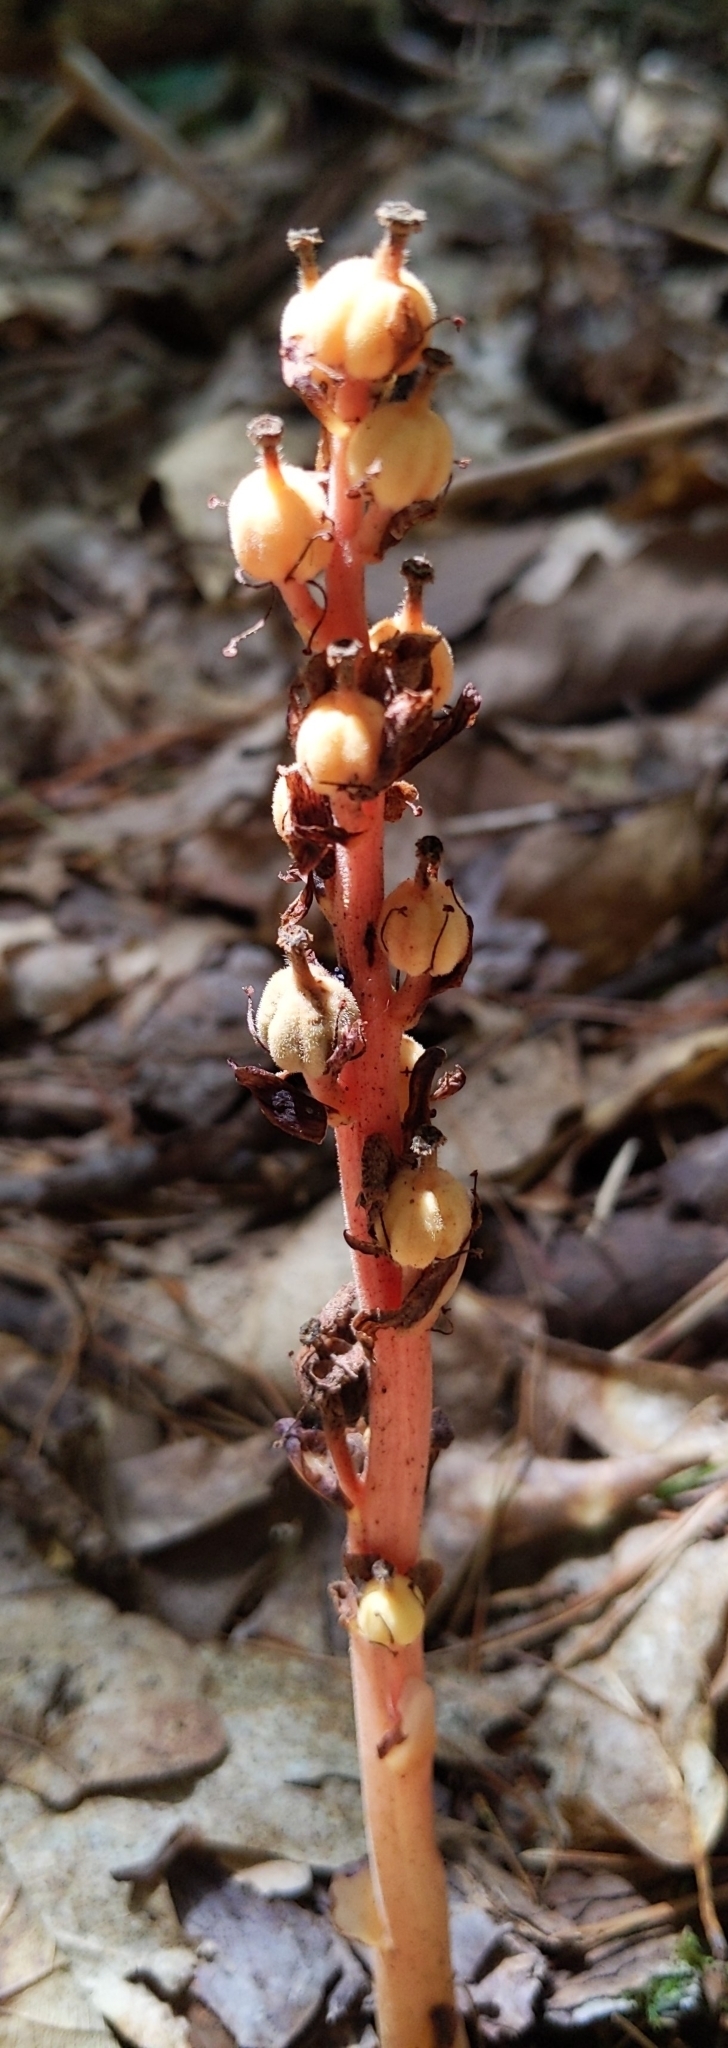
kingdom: Plantae
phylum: Tracheophyta
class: Magnoliopsida
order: Ericales
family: Ericaceae
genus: Hypopitys
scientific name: Hypopitys monotropa
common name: Yellow bird's-nest
